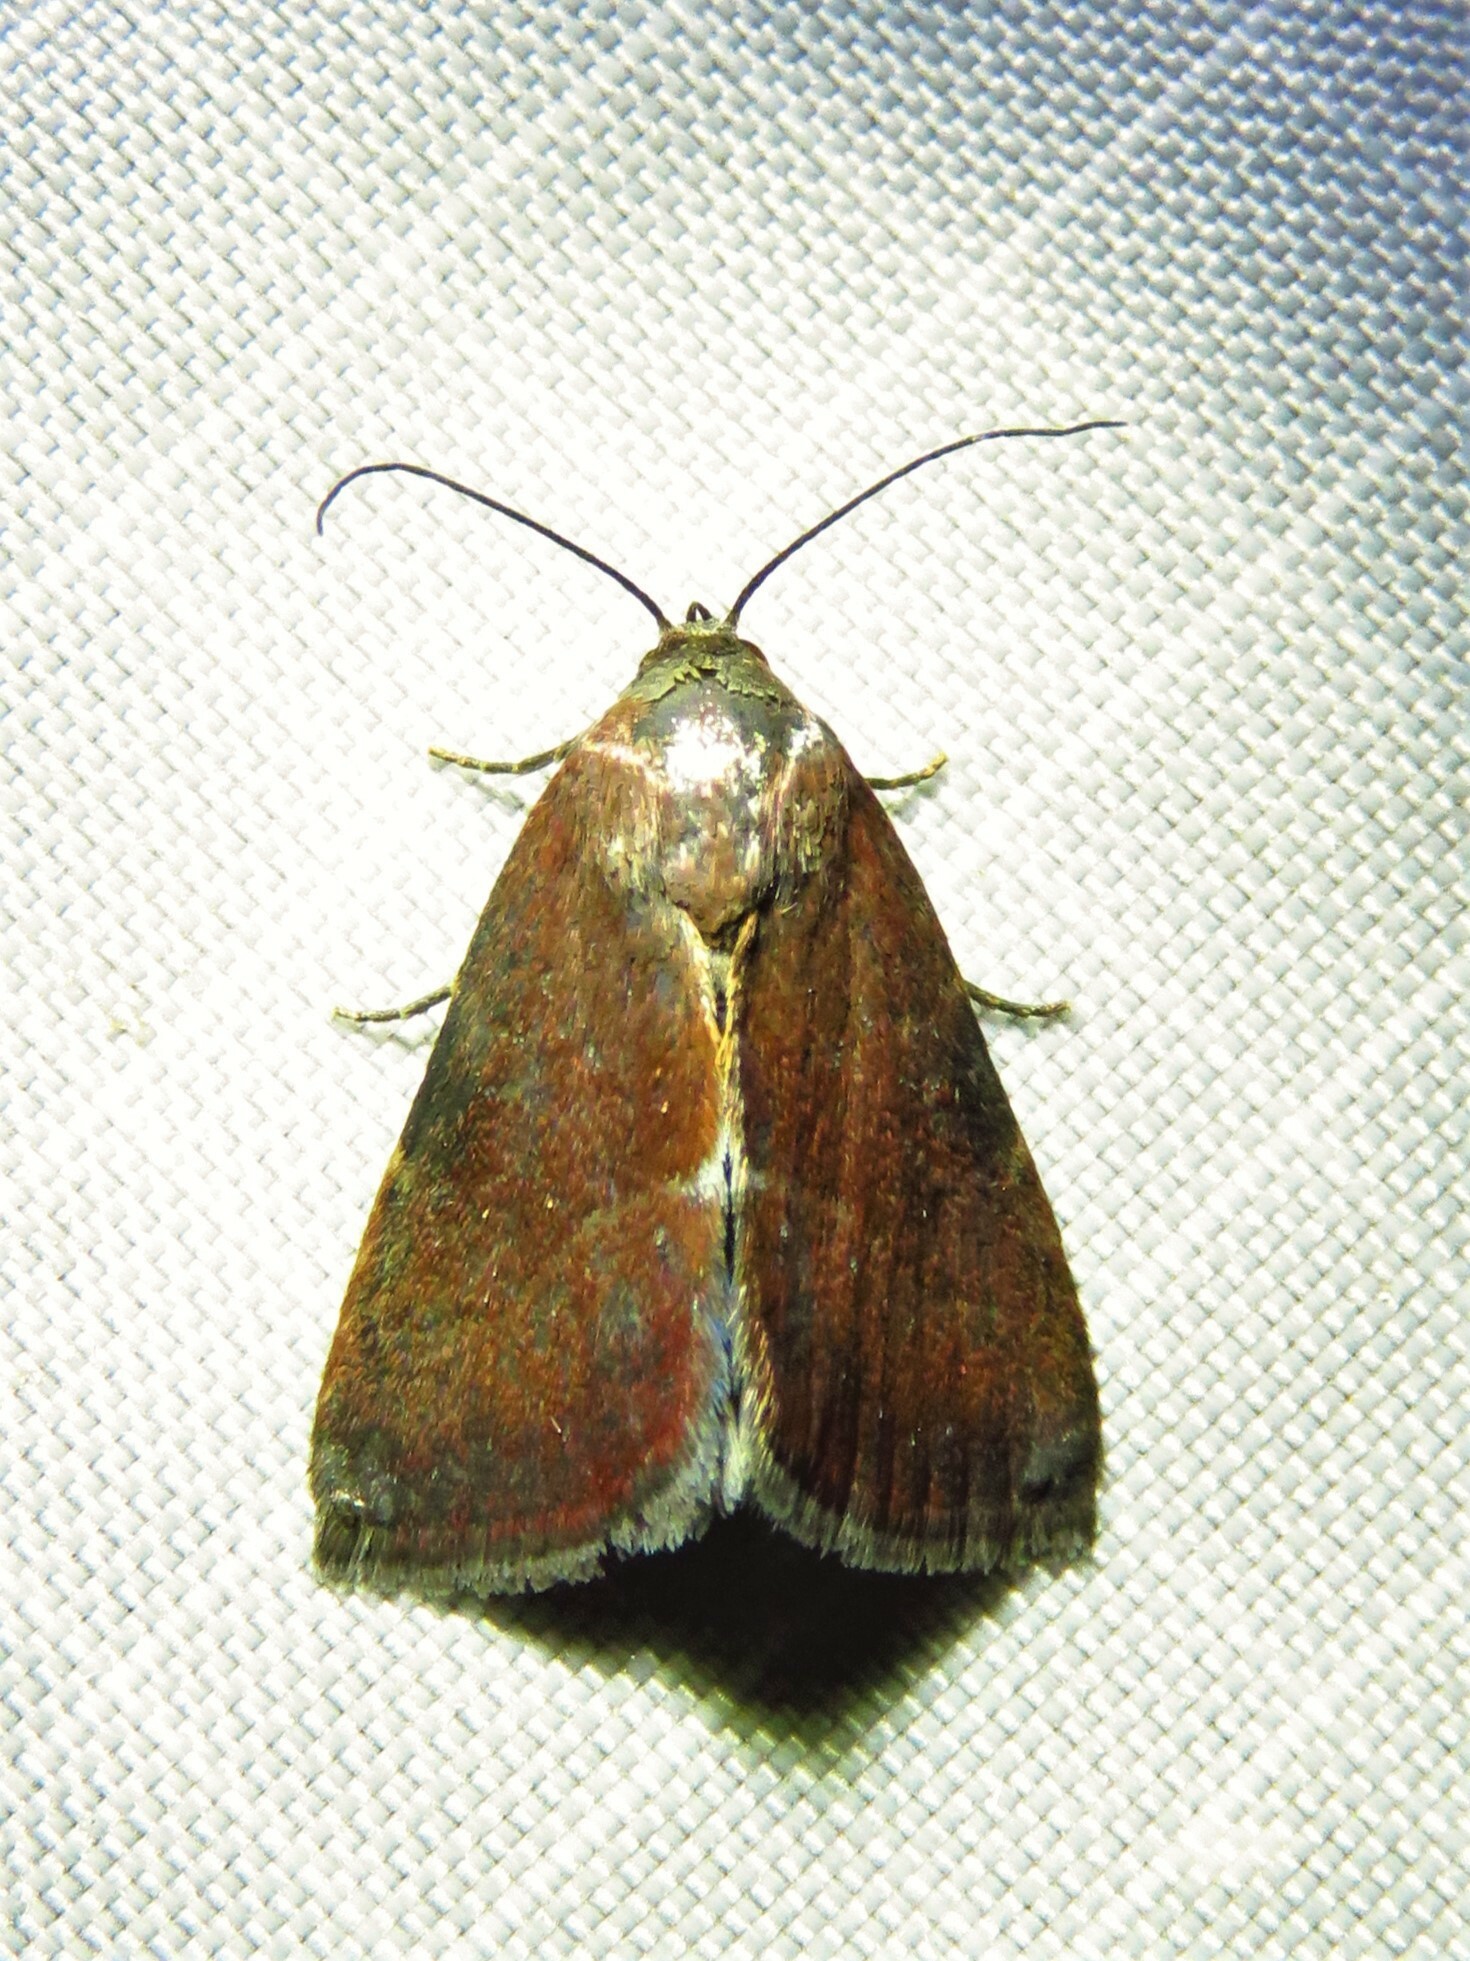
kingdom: Animalia
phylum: Arthropoda
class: Insecta
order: Lepidoptera
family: Noctuidae
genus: Galgula
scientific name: Galgula partita
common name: Wedgeling
